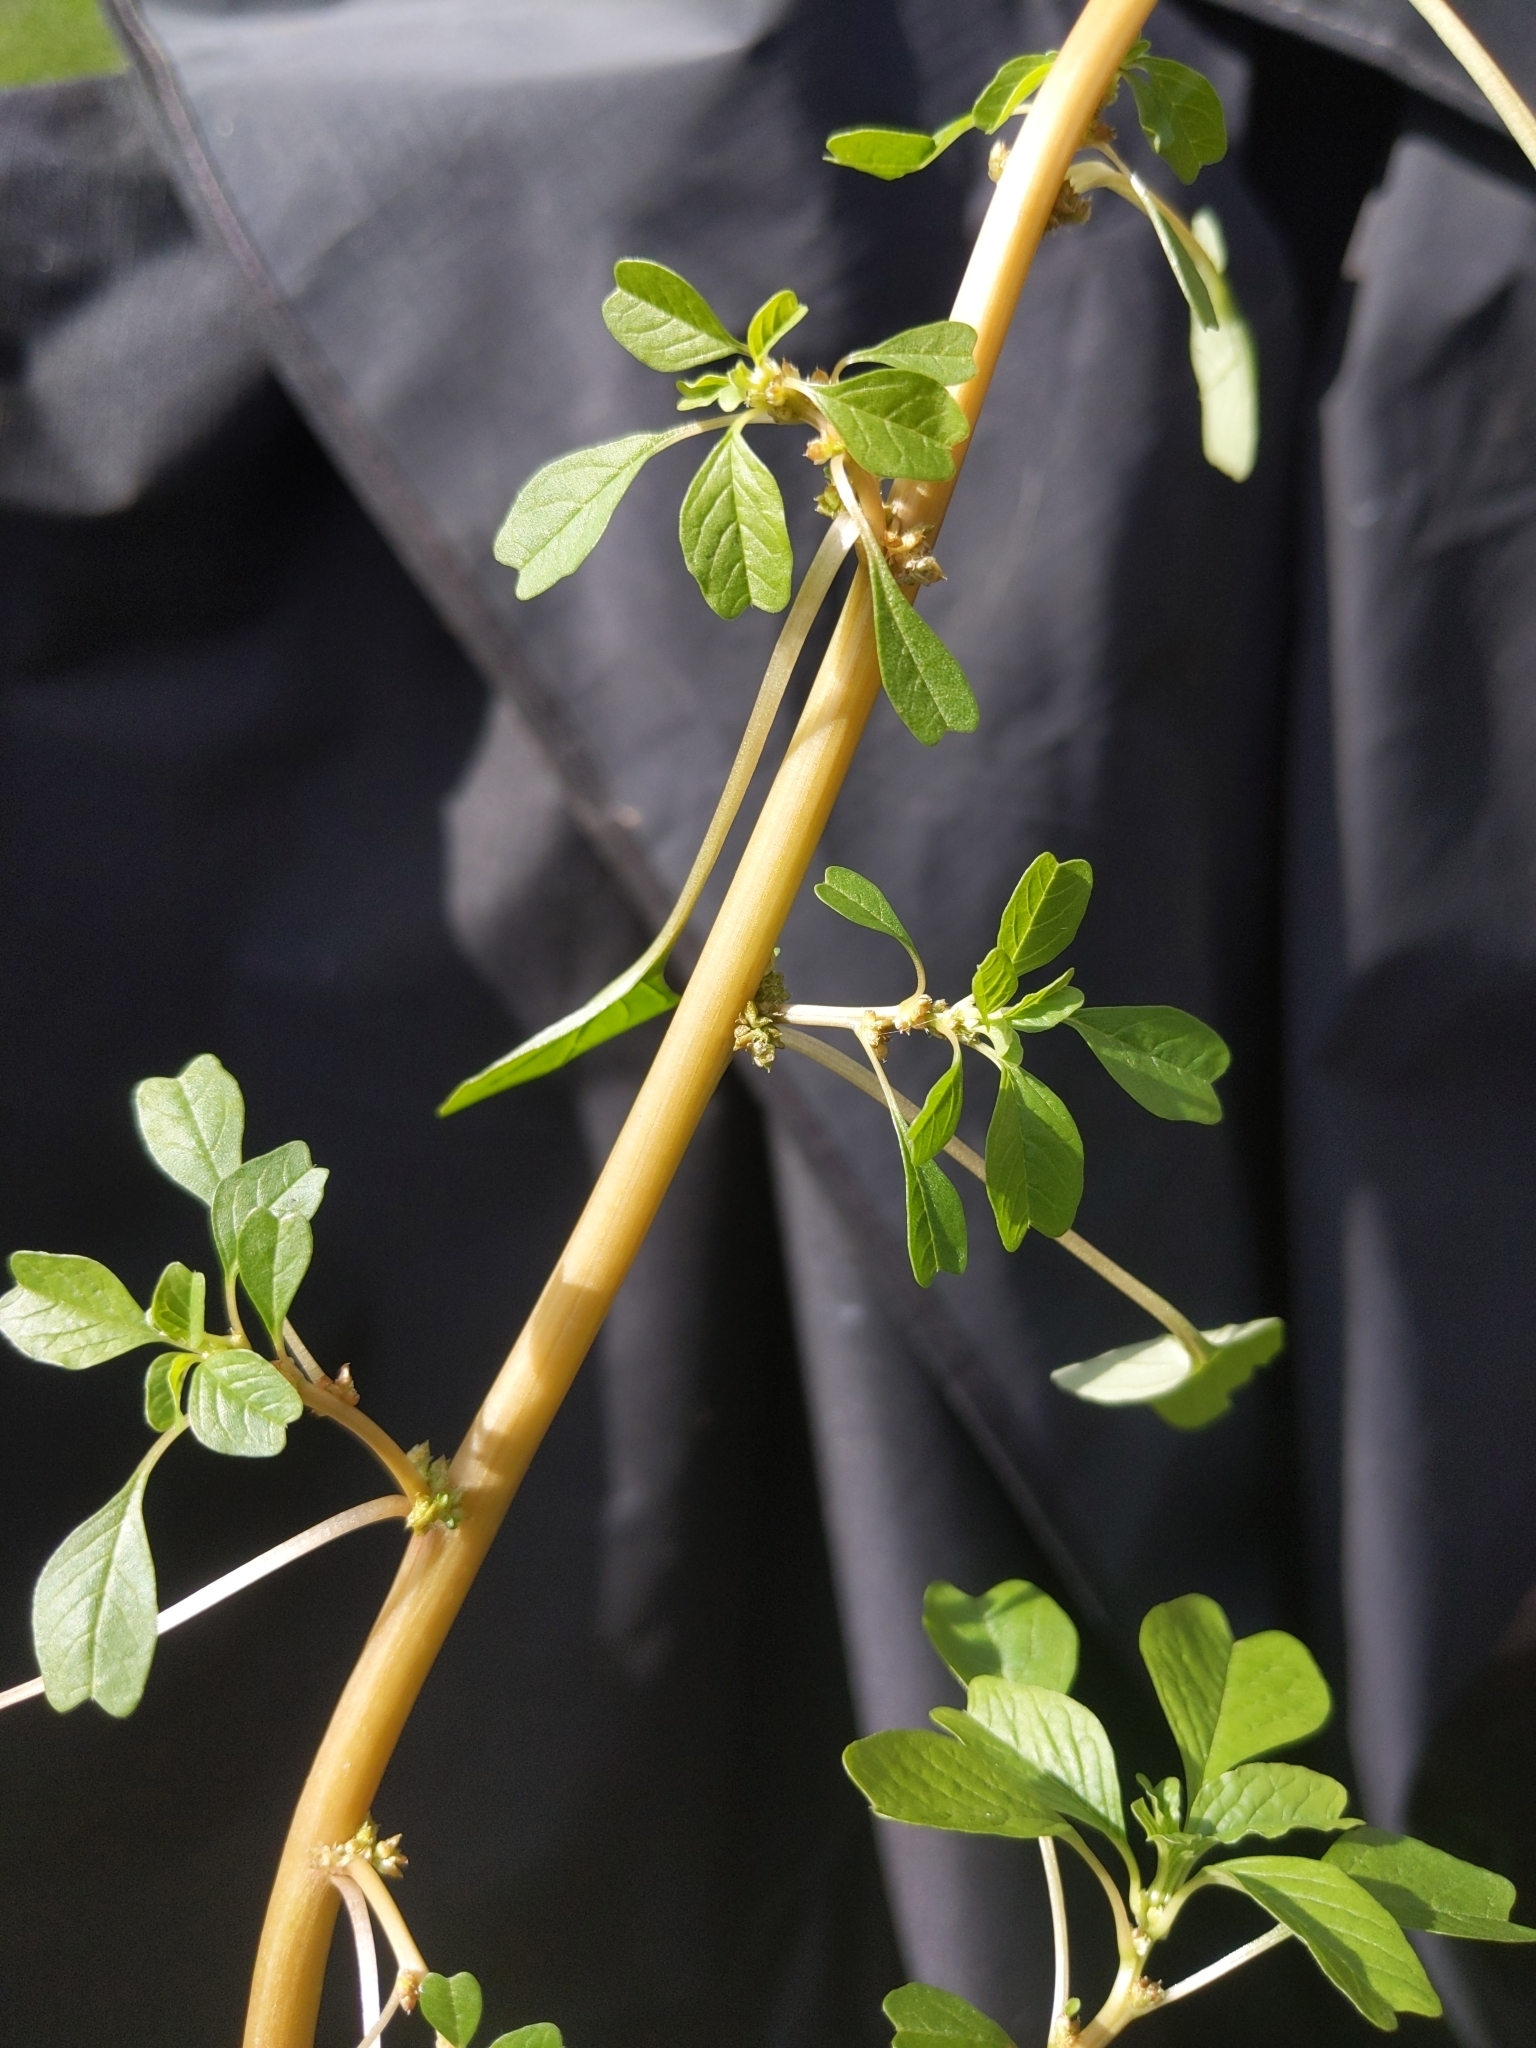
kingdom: Plantae
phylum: Tracheophyta
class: Magnoliopsida
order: Caryophyllales
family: Amaranthaceae
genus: Amaranthus
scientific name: Amaranthus blitum
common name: Purple amaranth
